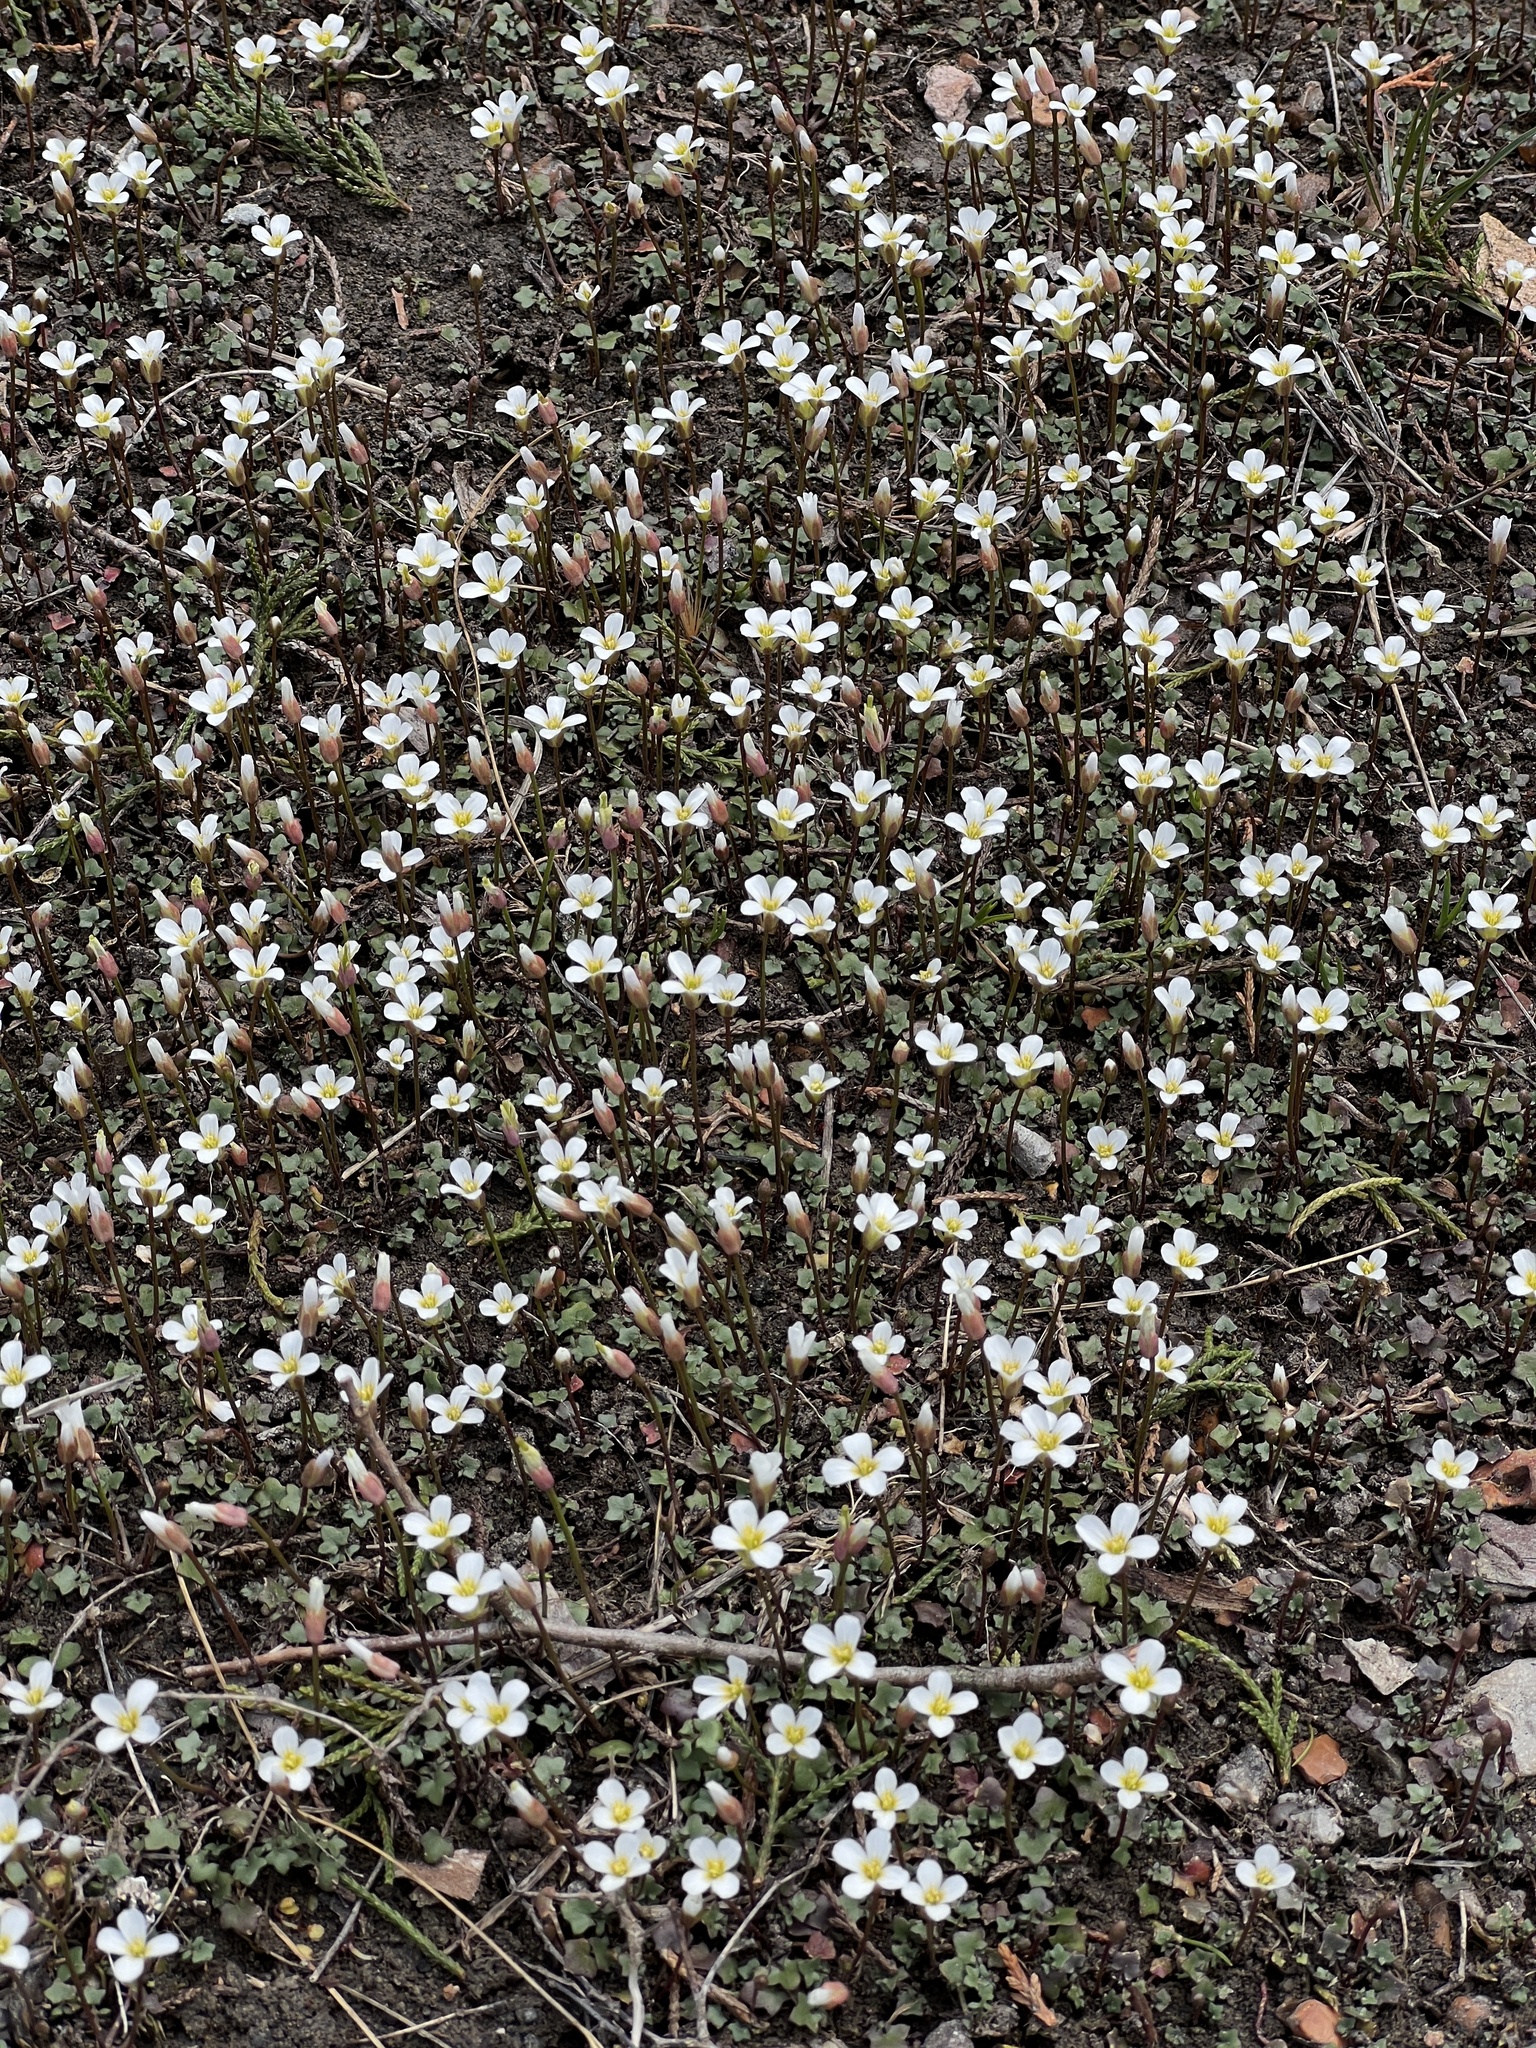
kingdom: Plantae
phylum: Tracheophyta
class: Magnoliopsida
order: Brassicales
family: Brassicaceae
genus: Leavenworthia
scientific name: Leavenworthia uniflora
